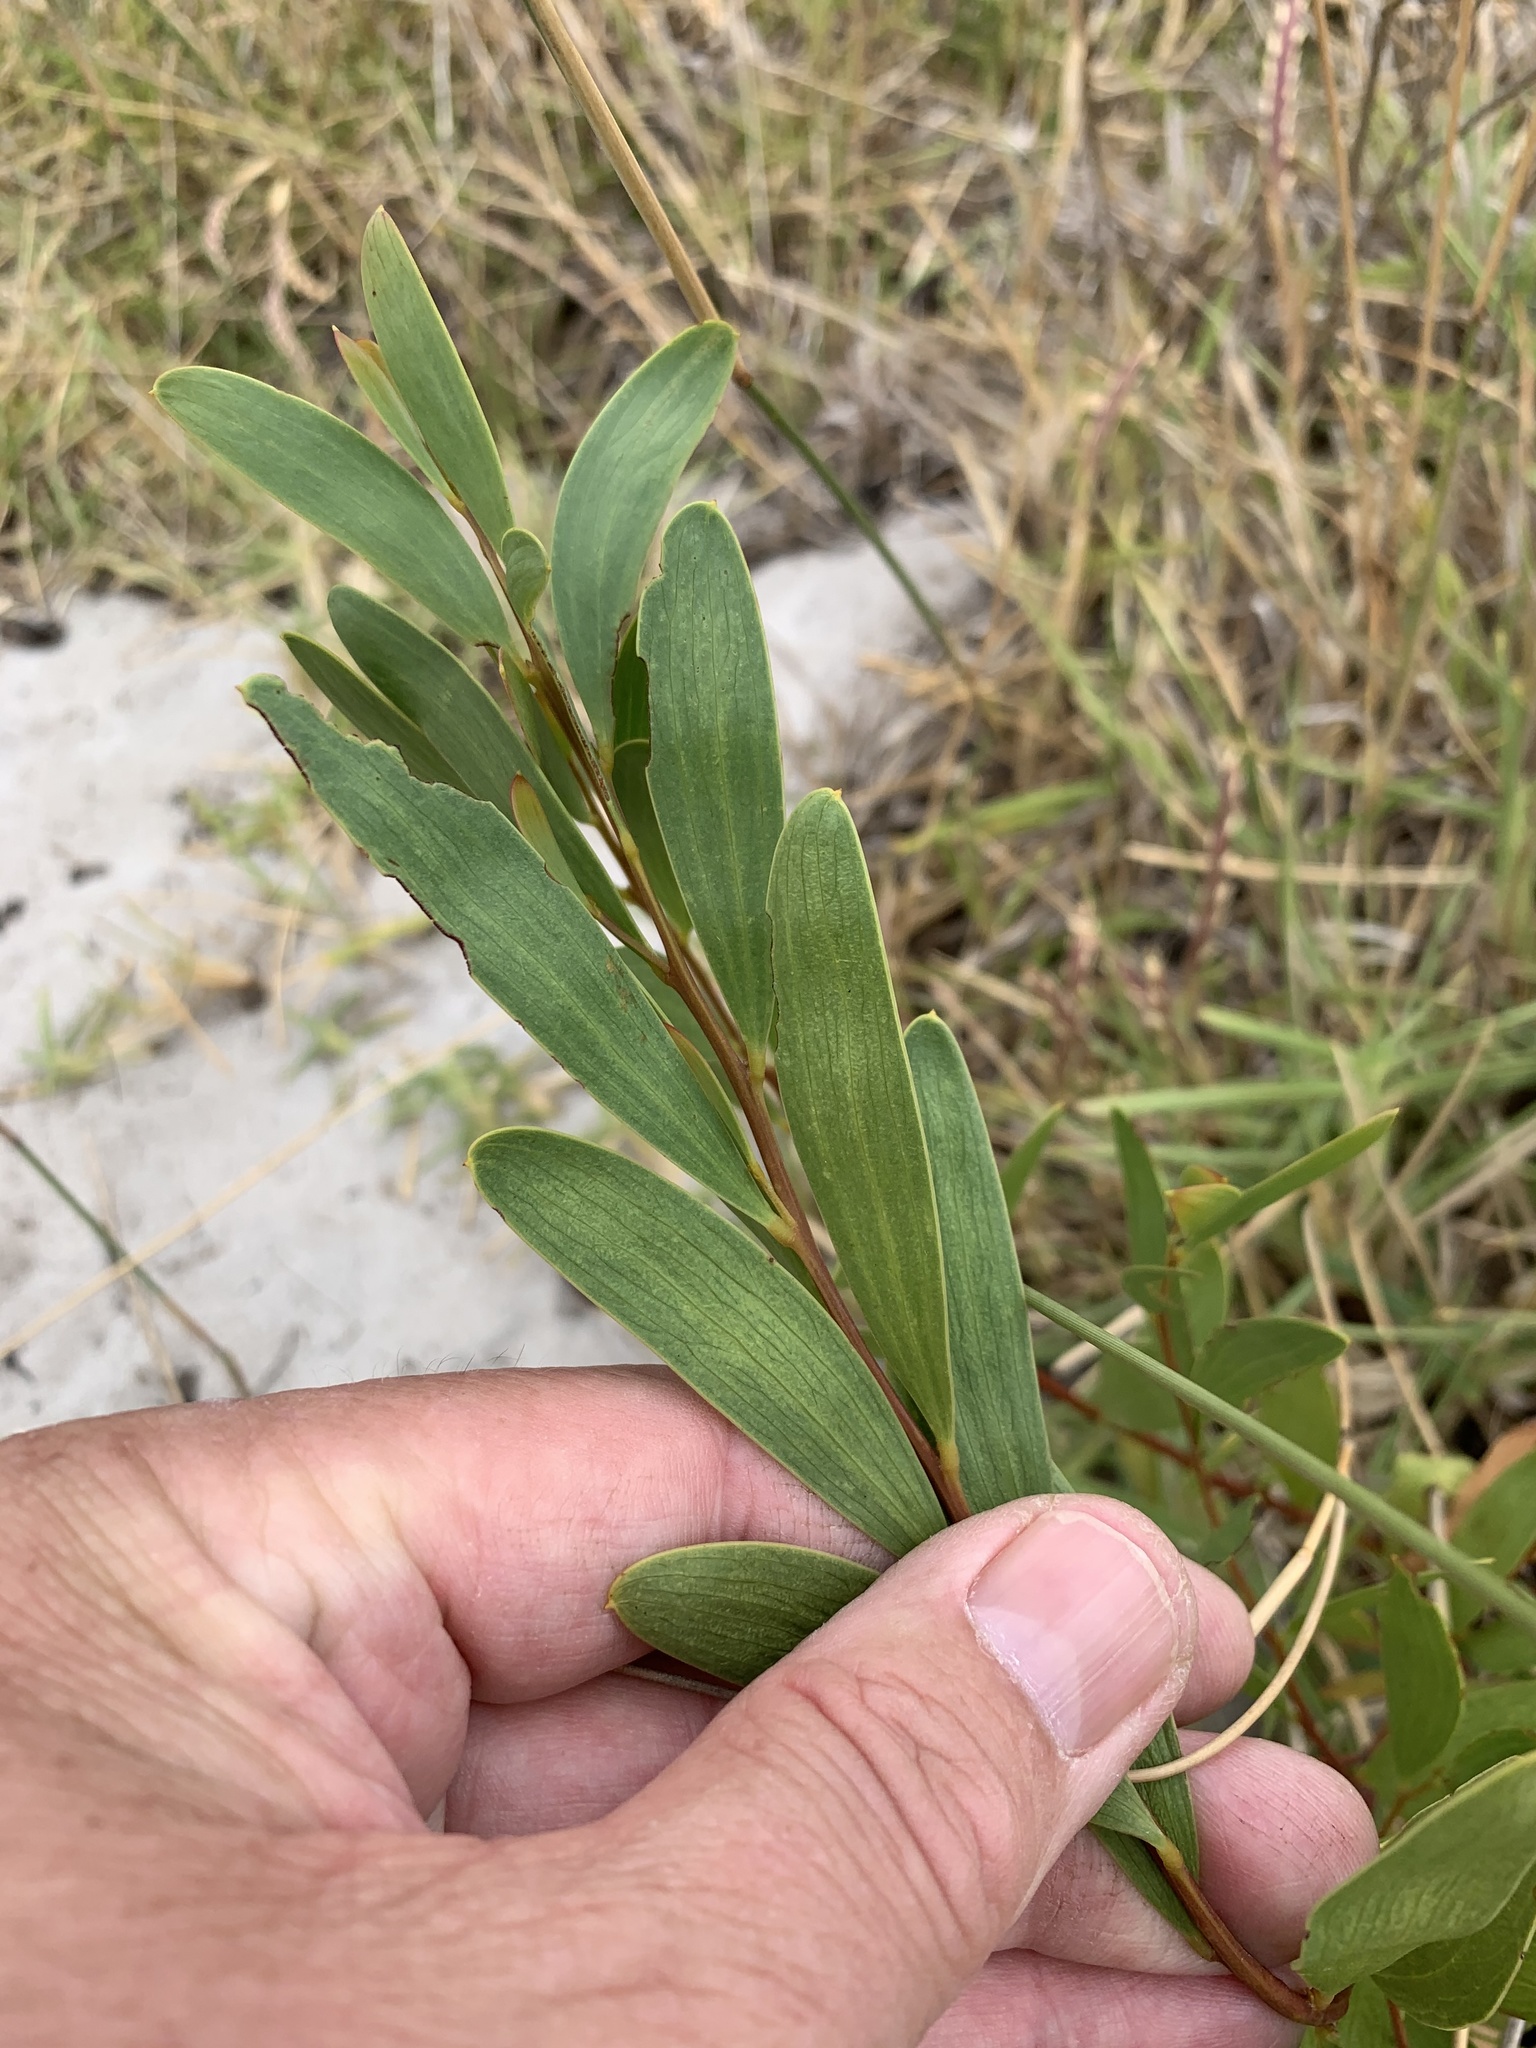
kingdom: Plantae
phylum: Tracheophyta
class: Magnoliopsida
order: Fabales
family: Fabaceae
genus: Acacia
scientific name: Acacia cyclops
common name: Coastal wattle
